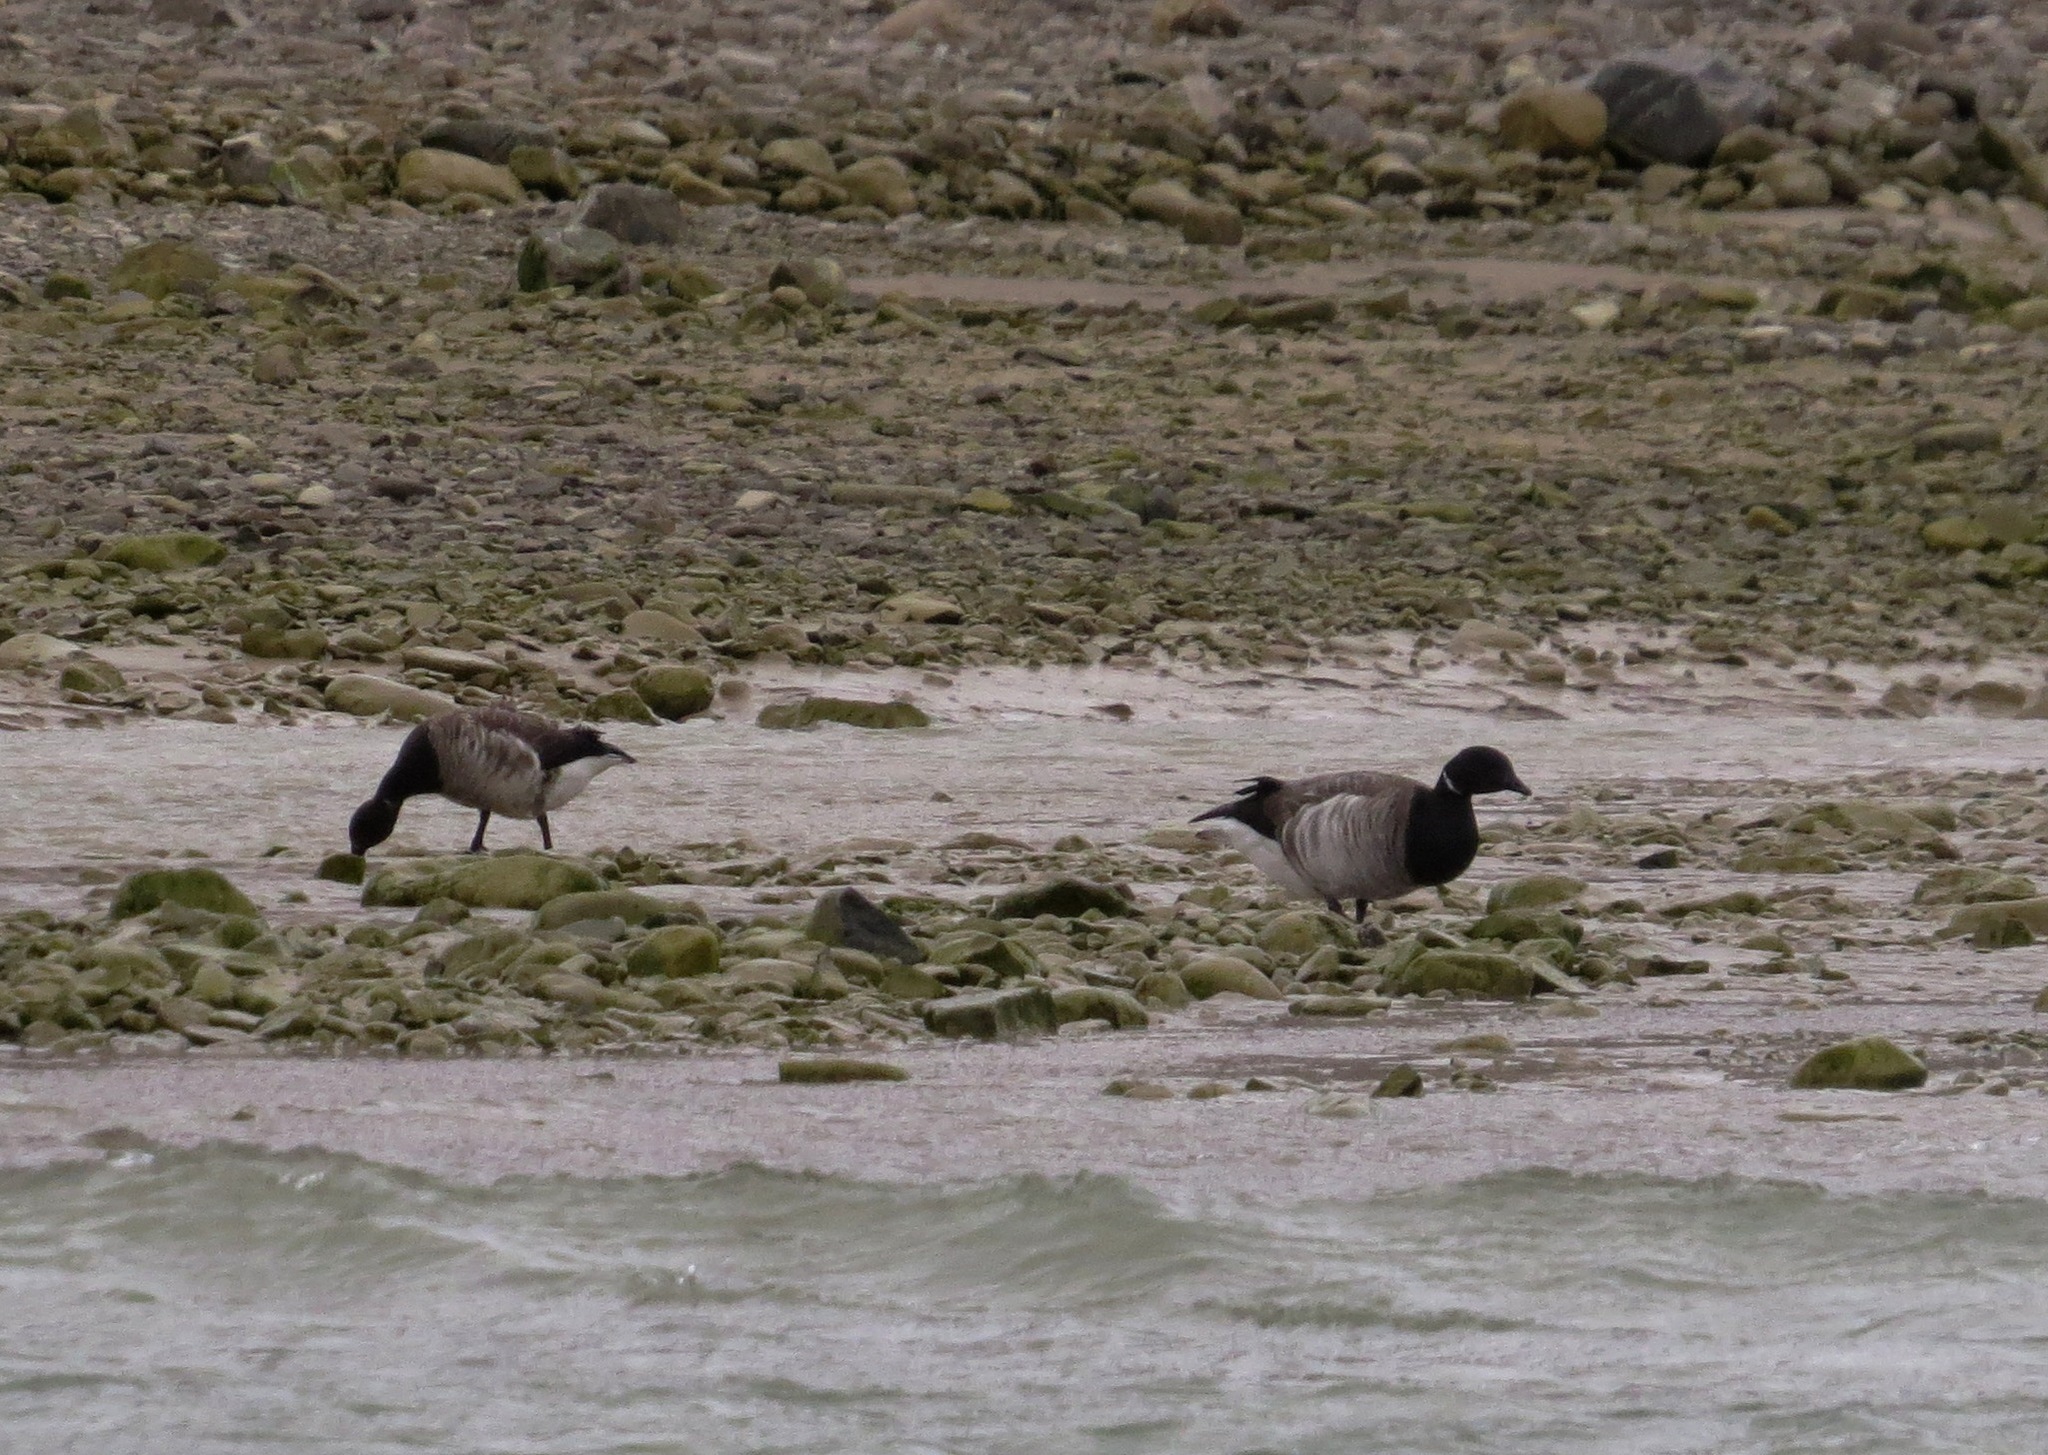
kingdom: Animalia
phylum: Chordata
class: Aves
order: Anseriformes
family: Anatidae
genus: Branta
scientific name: Branta bernicla
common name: Brant goose
